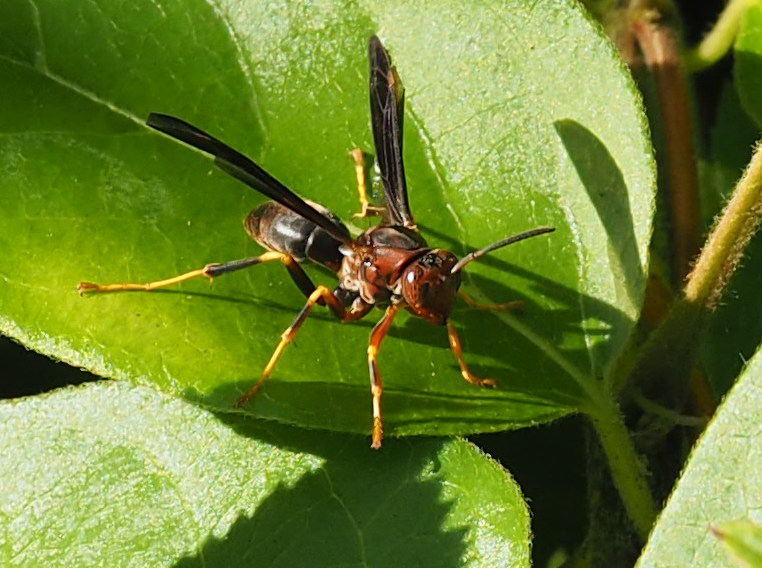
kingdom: Animalia
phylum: Arthropoda
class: Insecta
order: Hymenoptera
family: Eumenidae
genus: Polistes
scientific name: Polistes metricus
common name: Metric paper wasp
